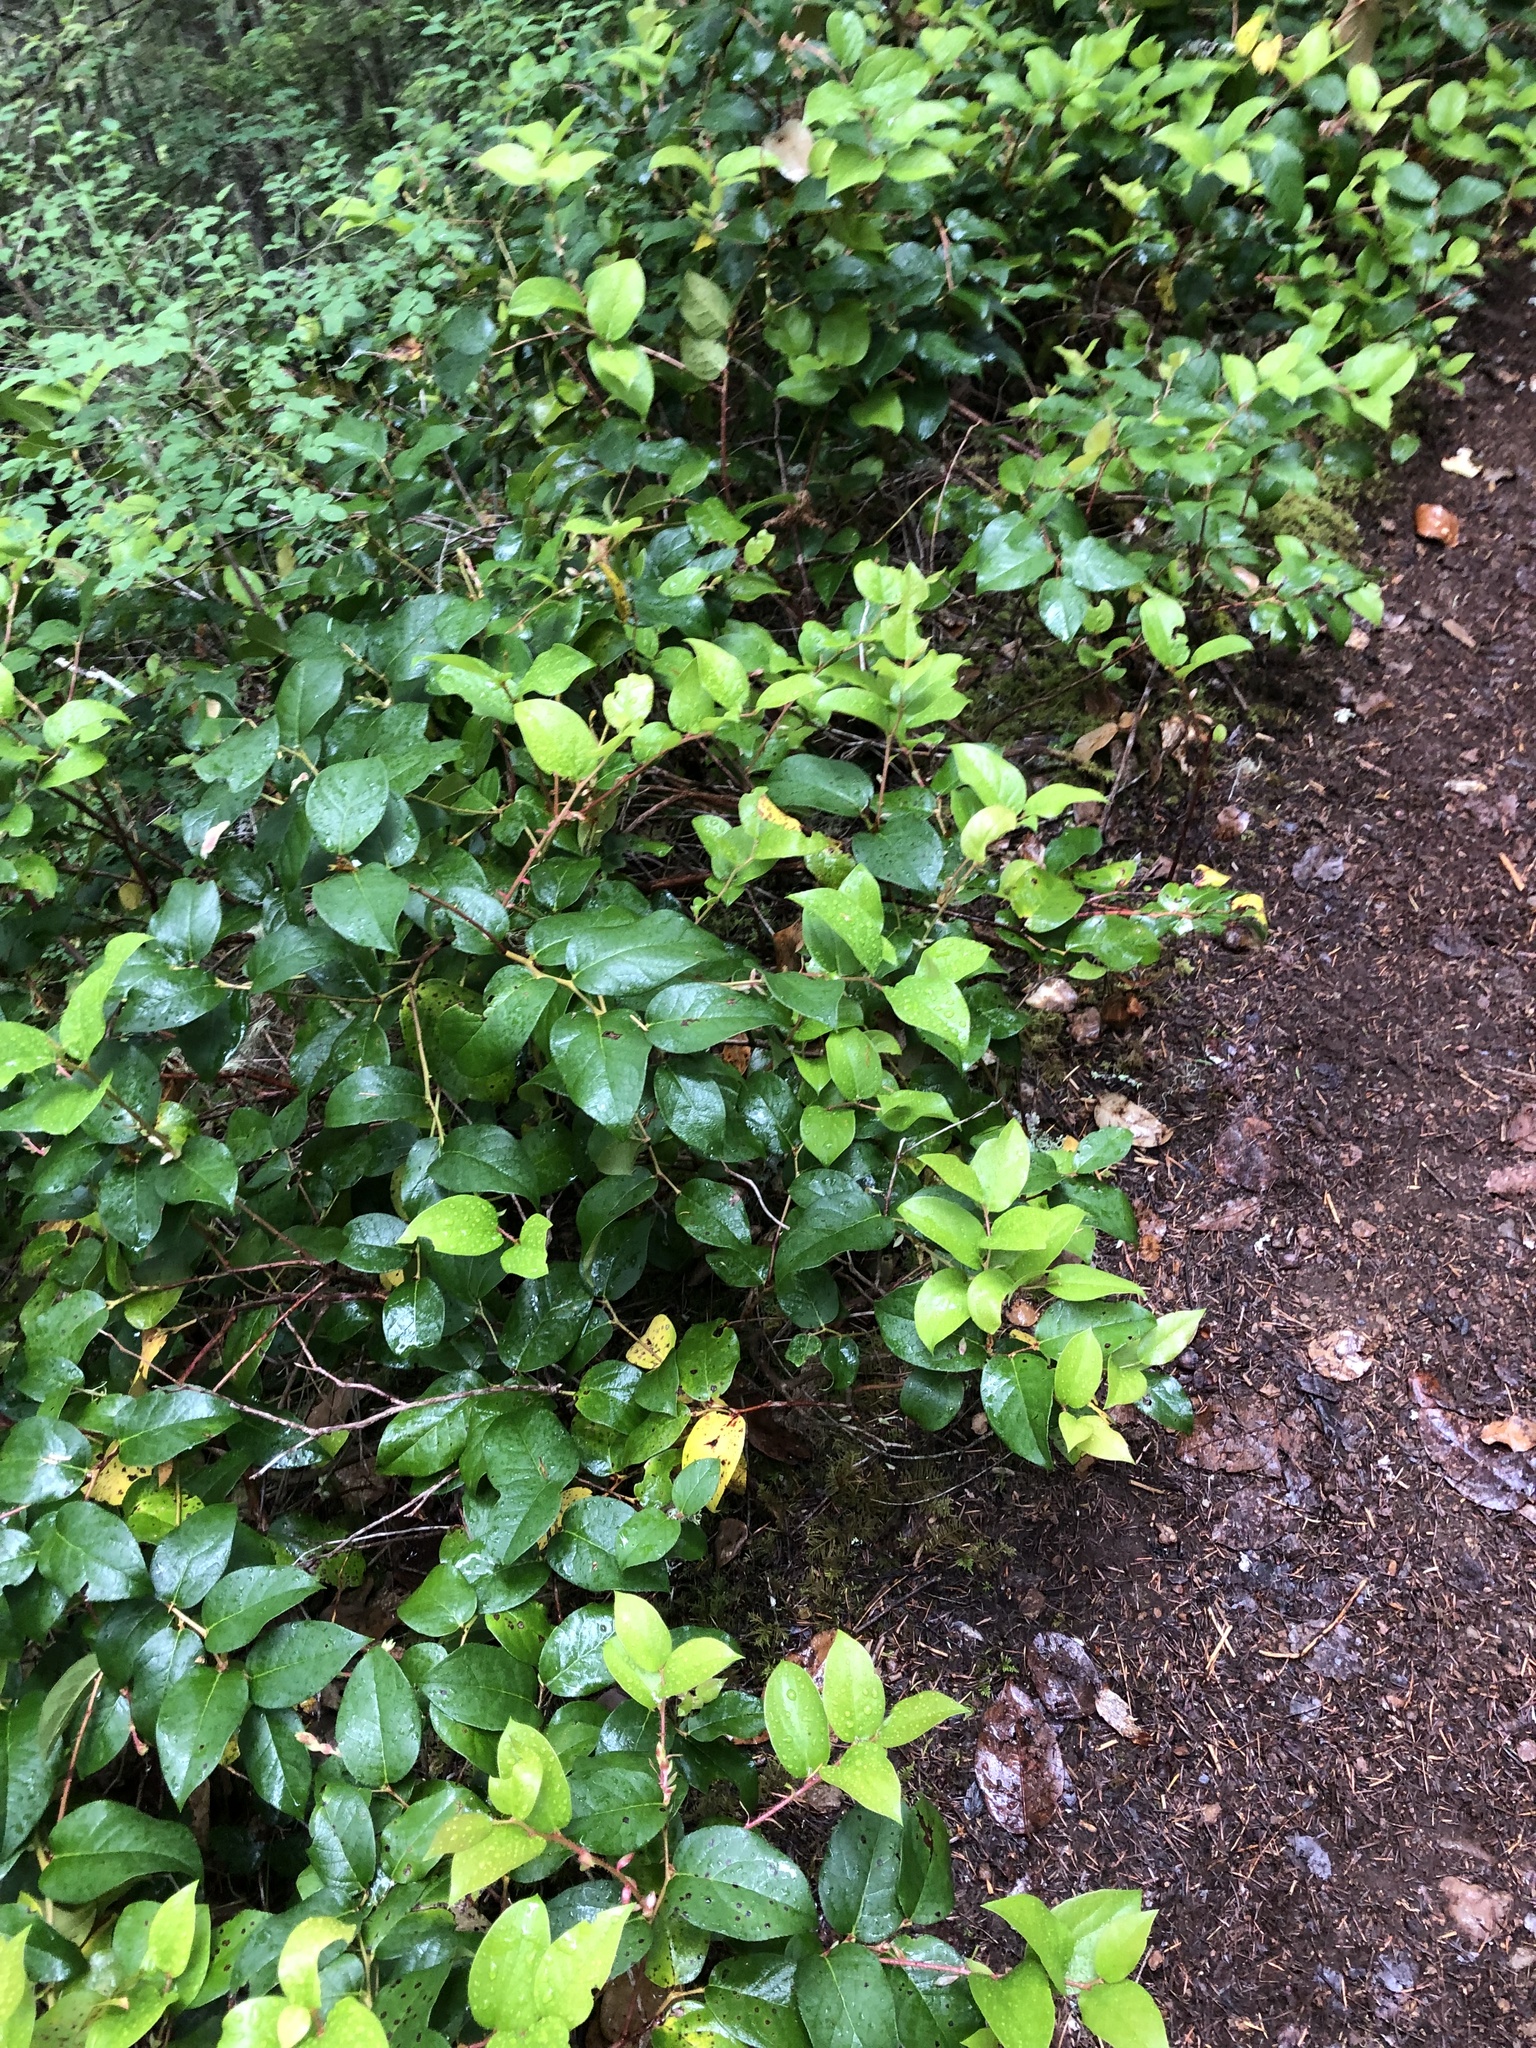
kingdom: Plantae
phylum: Tracheophyta
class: Magnoliopsida
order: Ericales
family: Ericaceae
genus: Gaultheria
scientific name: Gaultheria shallon
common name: Shallon
